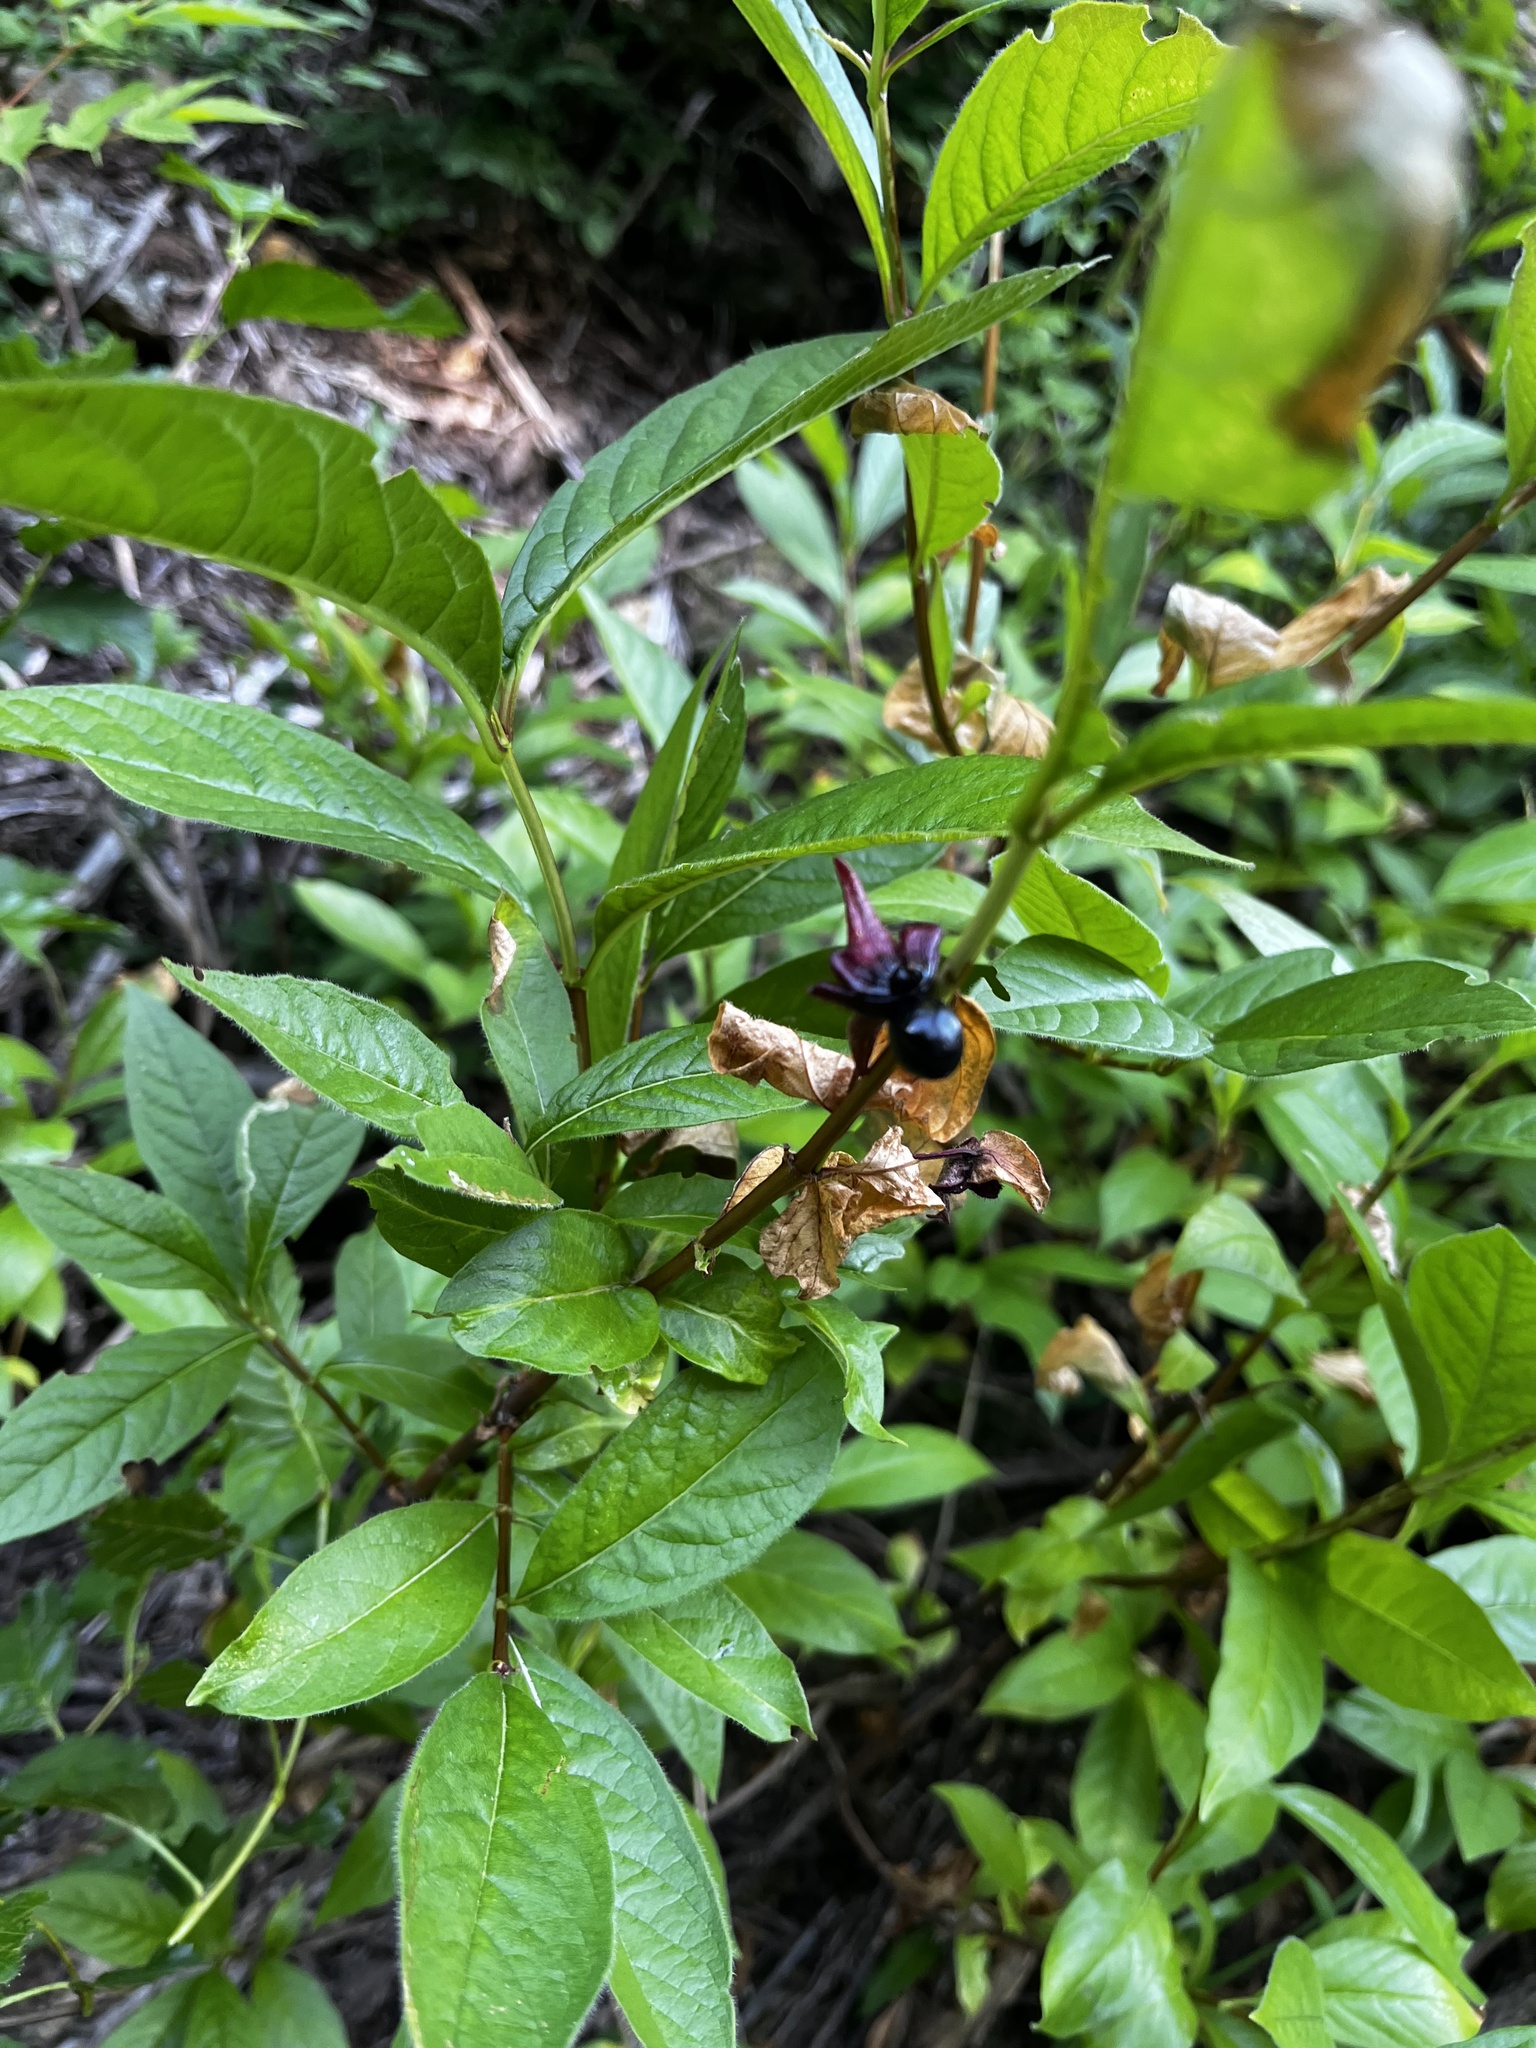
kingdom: Plantae
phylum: Tracheophyta
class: Magnoliopsida
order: Dipsacales
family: Caprifoliaceae
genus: Lonicera
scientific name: Lonicera involucrata
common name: Californian honeysuckle
